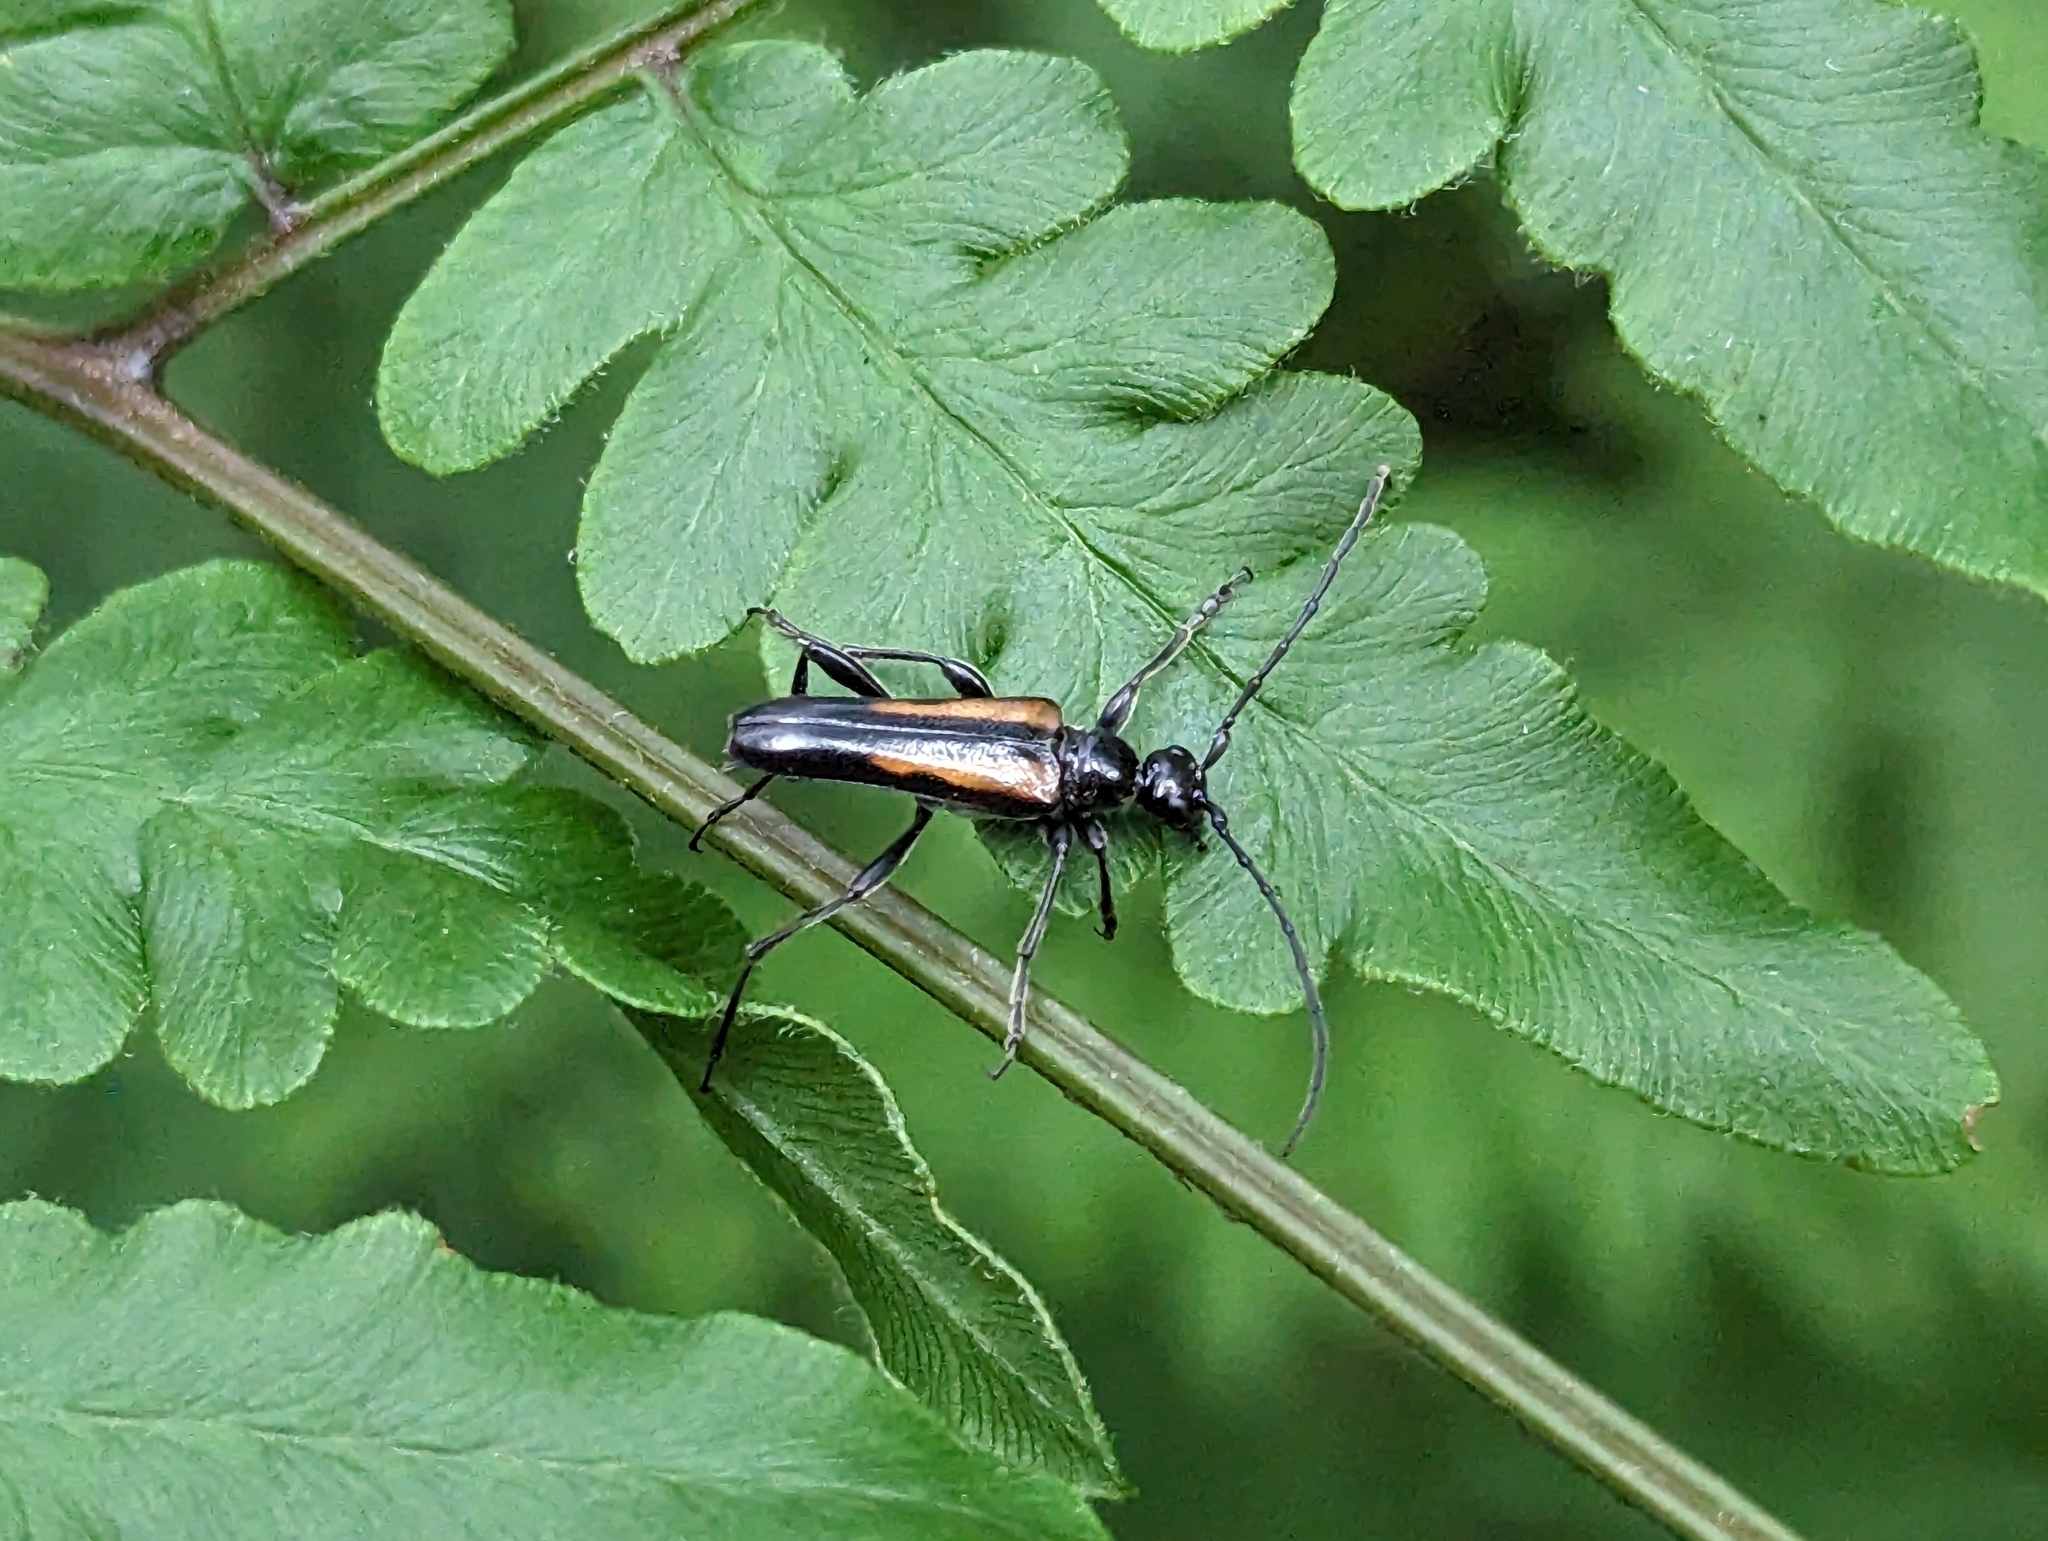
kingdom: Animalia
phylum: Arthropoda
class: Insecta
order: Coleoptera
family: Cerambycidae
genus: Strangalepta
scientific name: Strangalepta abbreviata
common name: Strangalepta flower longhorn beetle
